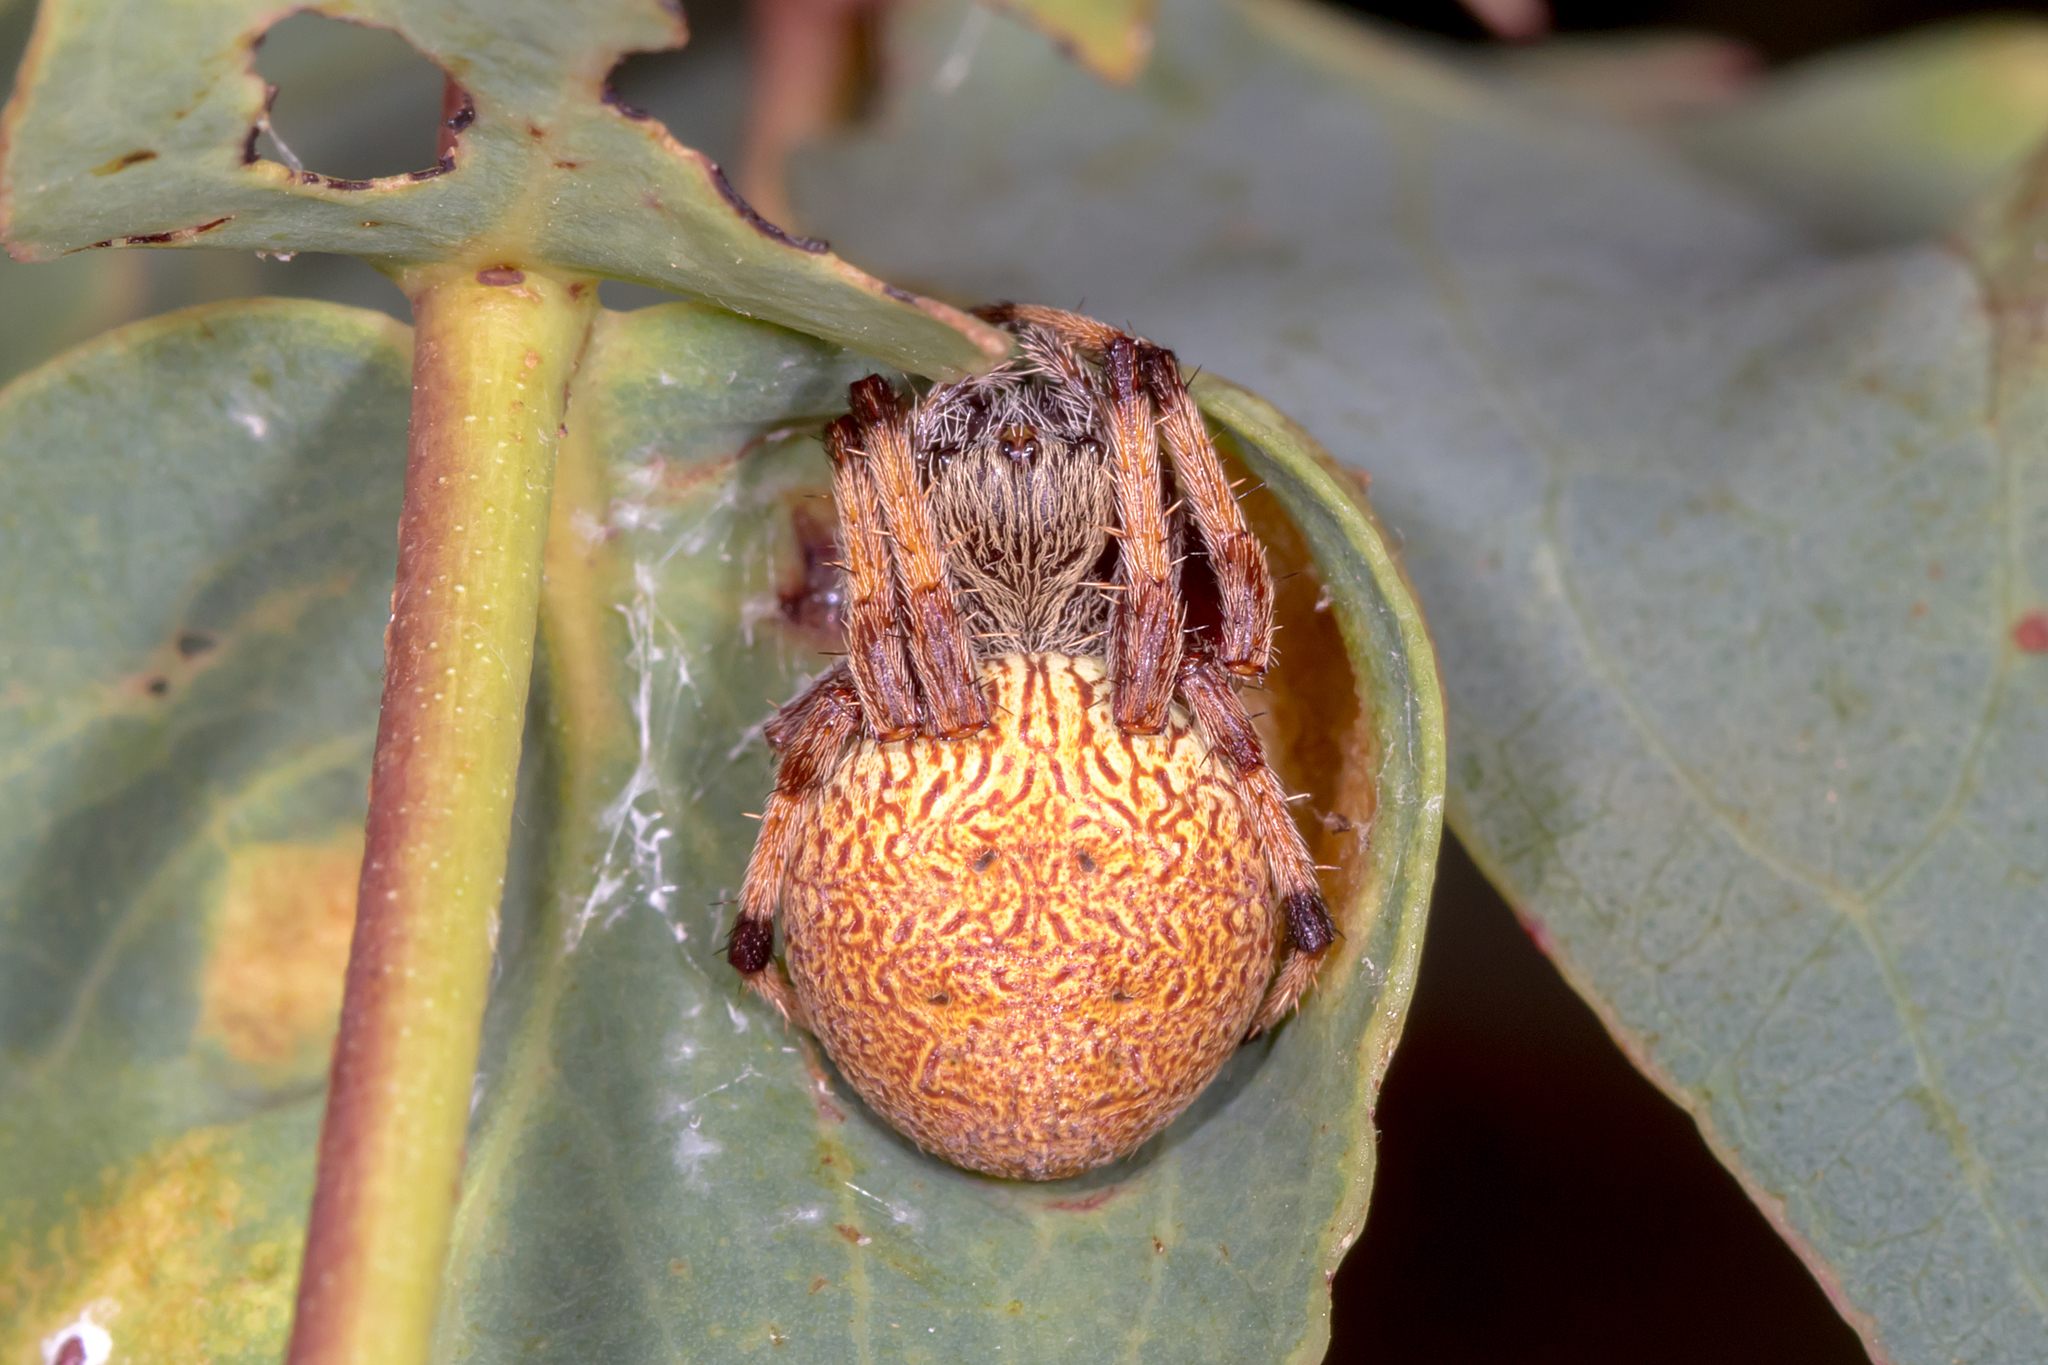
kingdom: Animalia
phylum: Arthropoda
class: Arachnida
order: Araneae
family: Araneidae
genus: Salsa
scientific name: Salsa fuliginata
